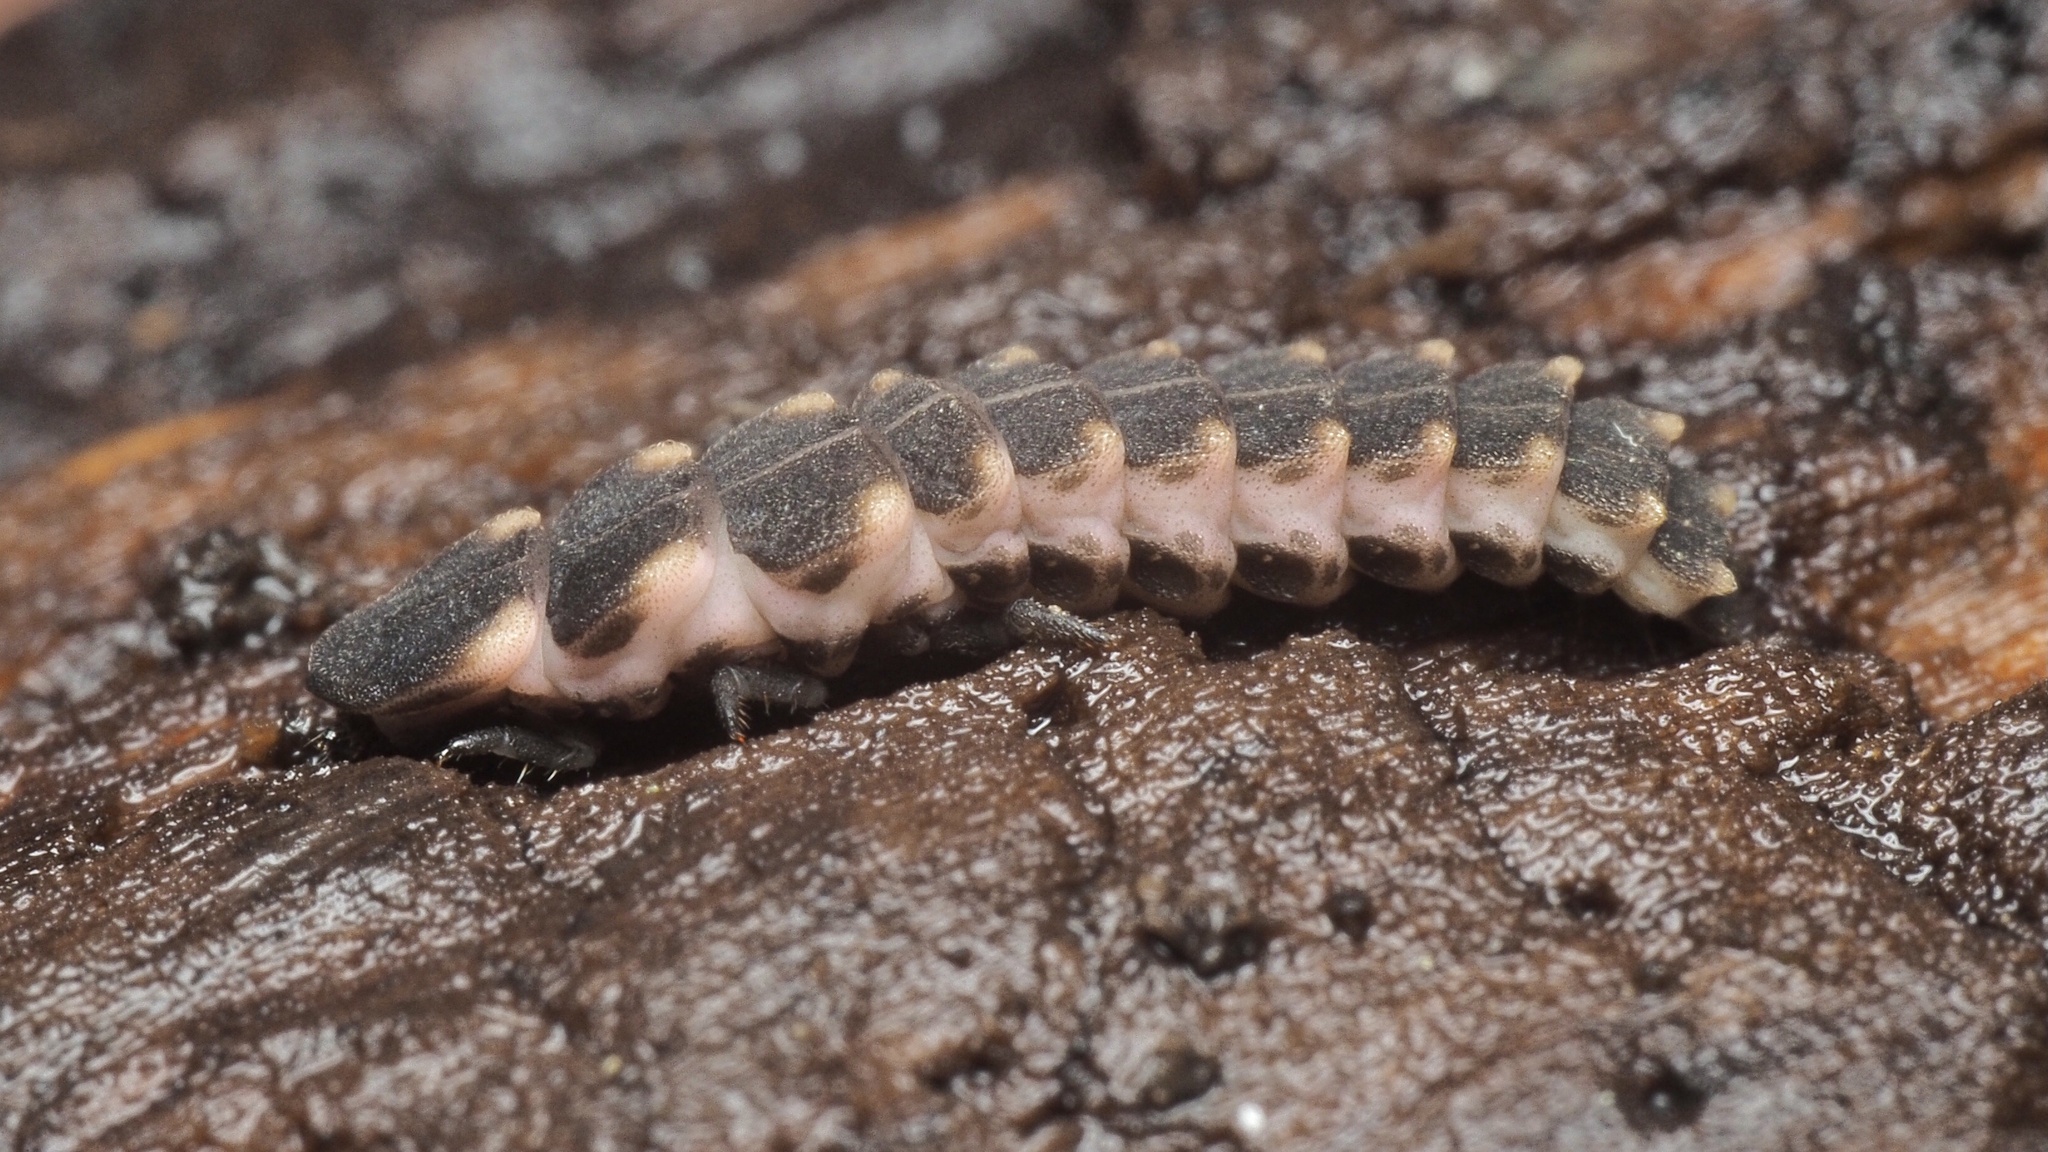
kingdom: Animalia
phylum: Arthropoda
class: Insecta
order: Coleoptera
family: Lampyridae
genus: Lampyris
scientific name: Lampyris noctiluca
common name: Glow-worm
